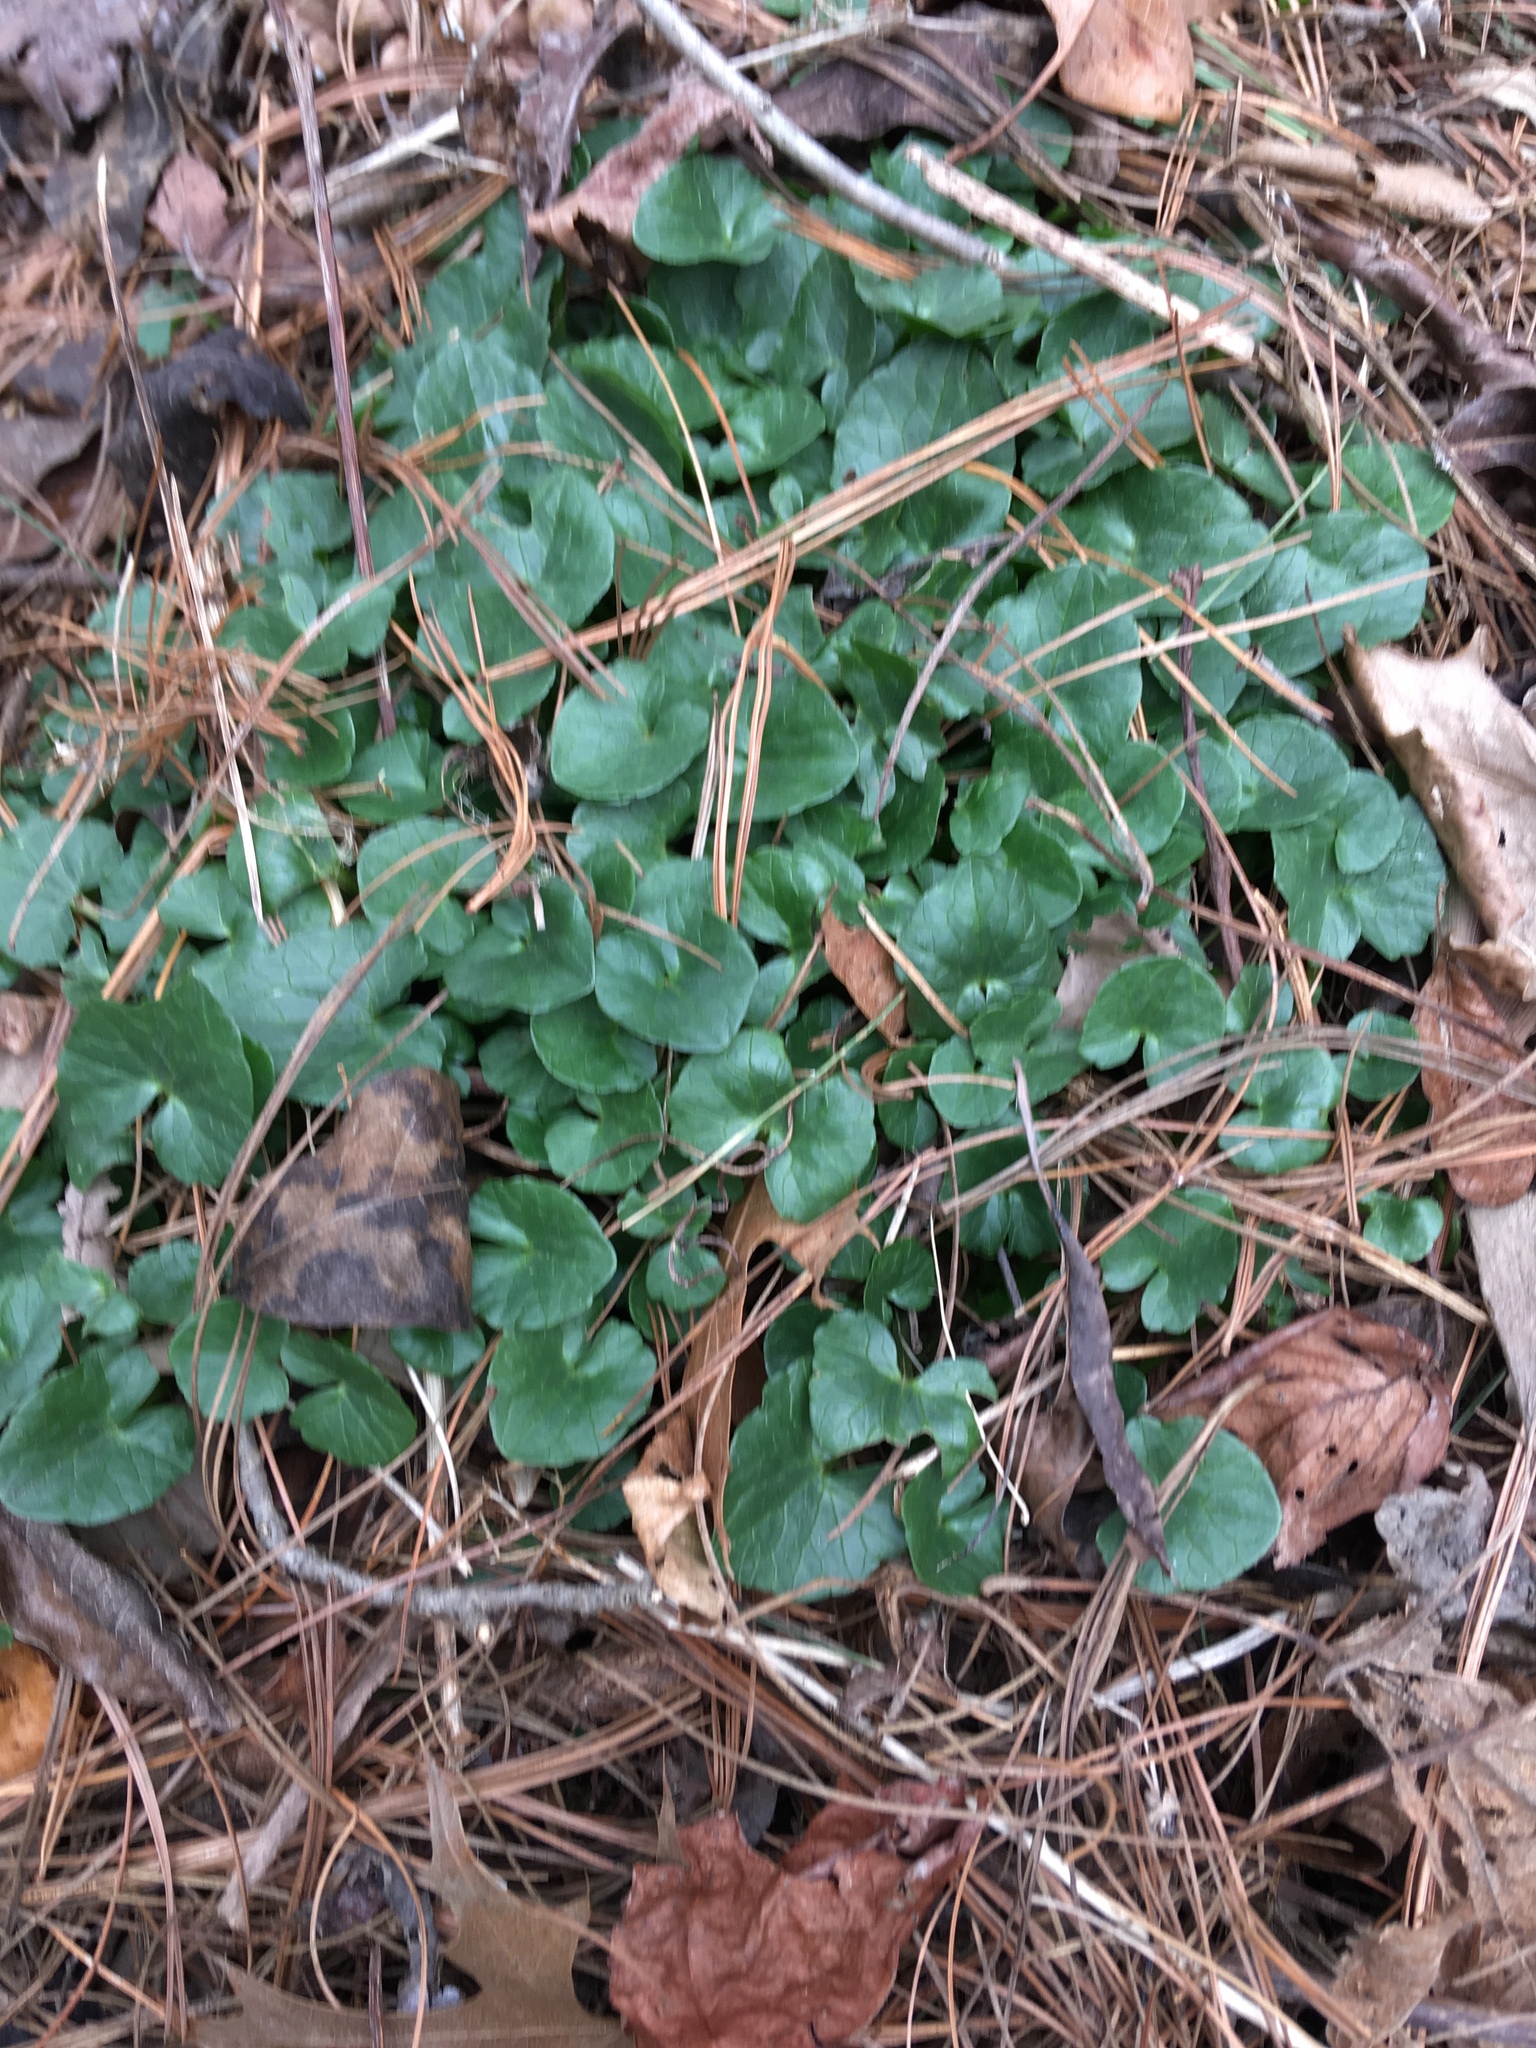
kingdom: Plantae
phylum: Tracheophyta
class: Magnoliopsida
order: Ranunculales
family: Ranunculaceae
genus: Ficaria
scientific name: Ficaria verna
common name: Lesser celandine
